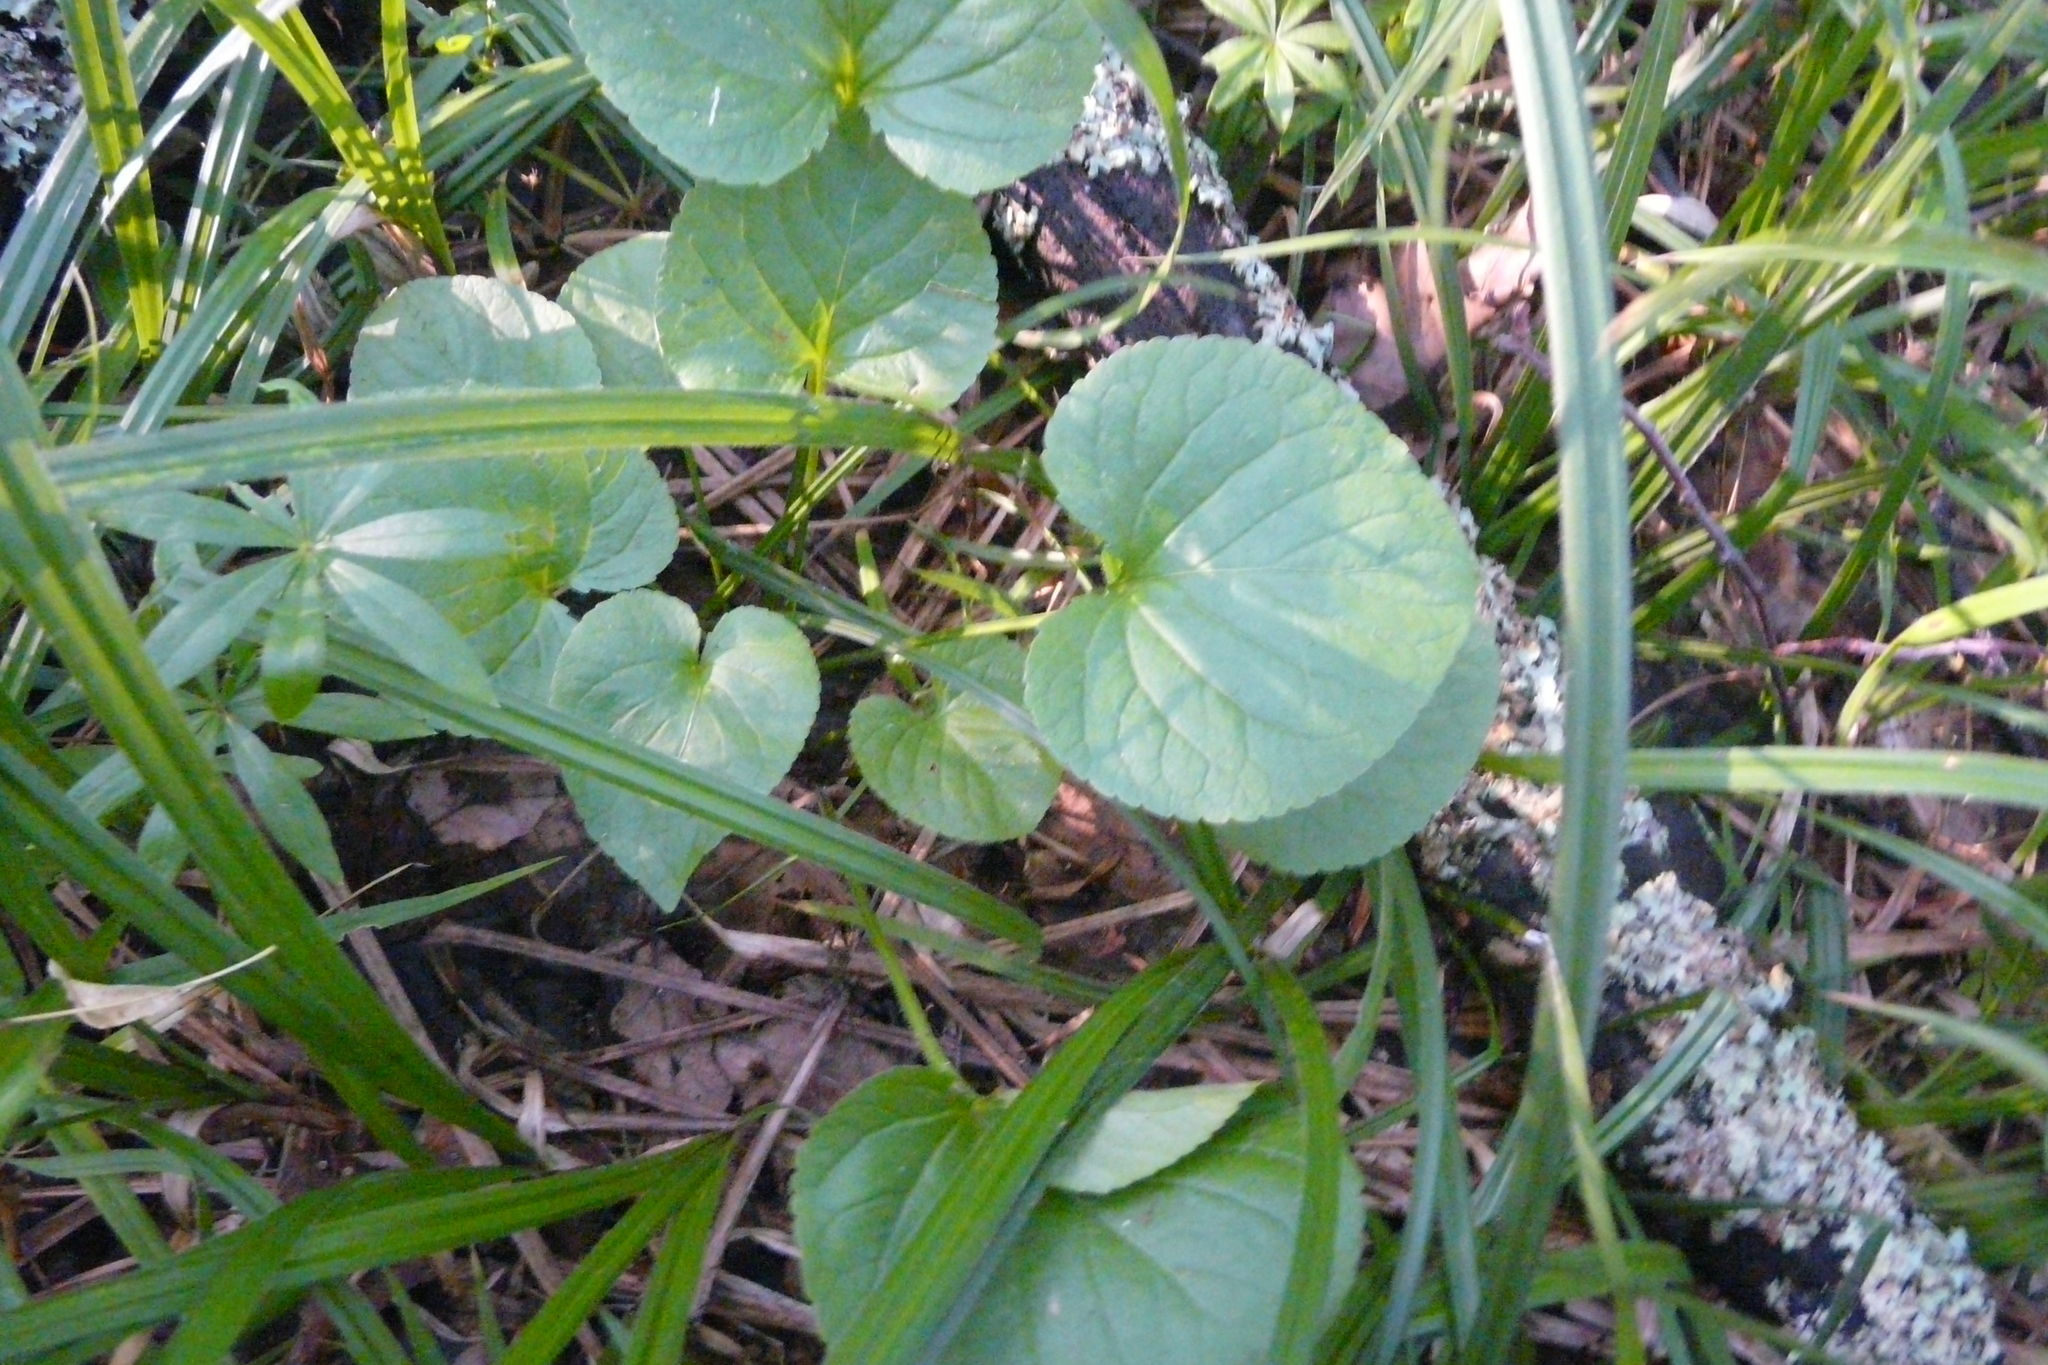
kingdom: Plantae
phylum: Tracheophyta
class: Magnoliopsida
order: Malpighiales
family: Violaceae
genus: Viola
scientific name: Viola mirabilis
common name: Wonder violet
